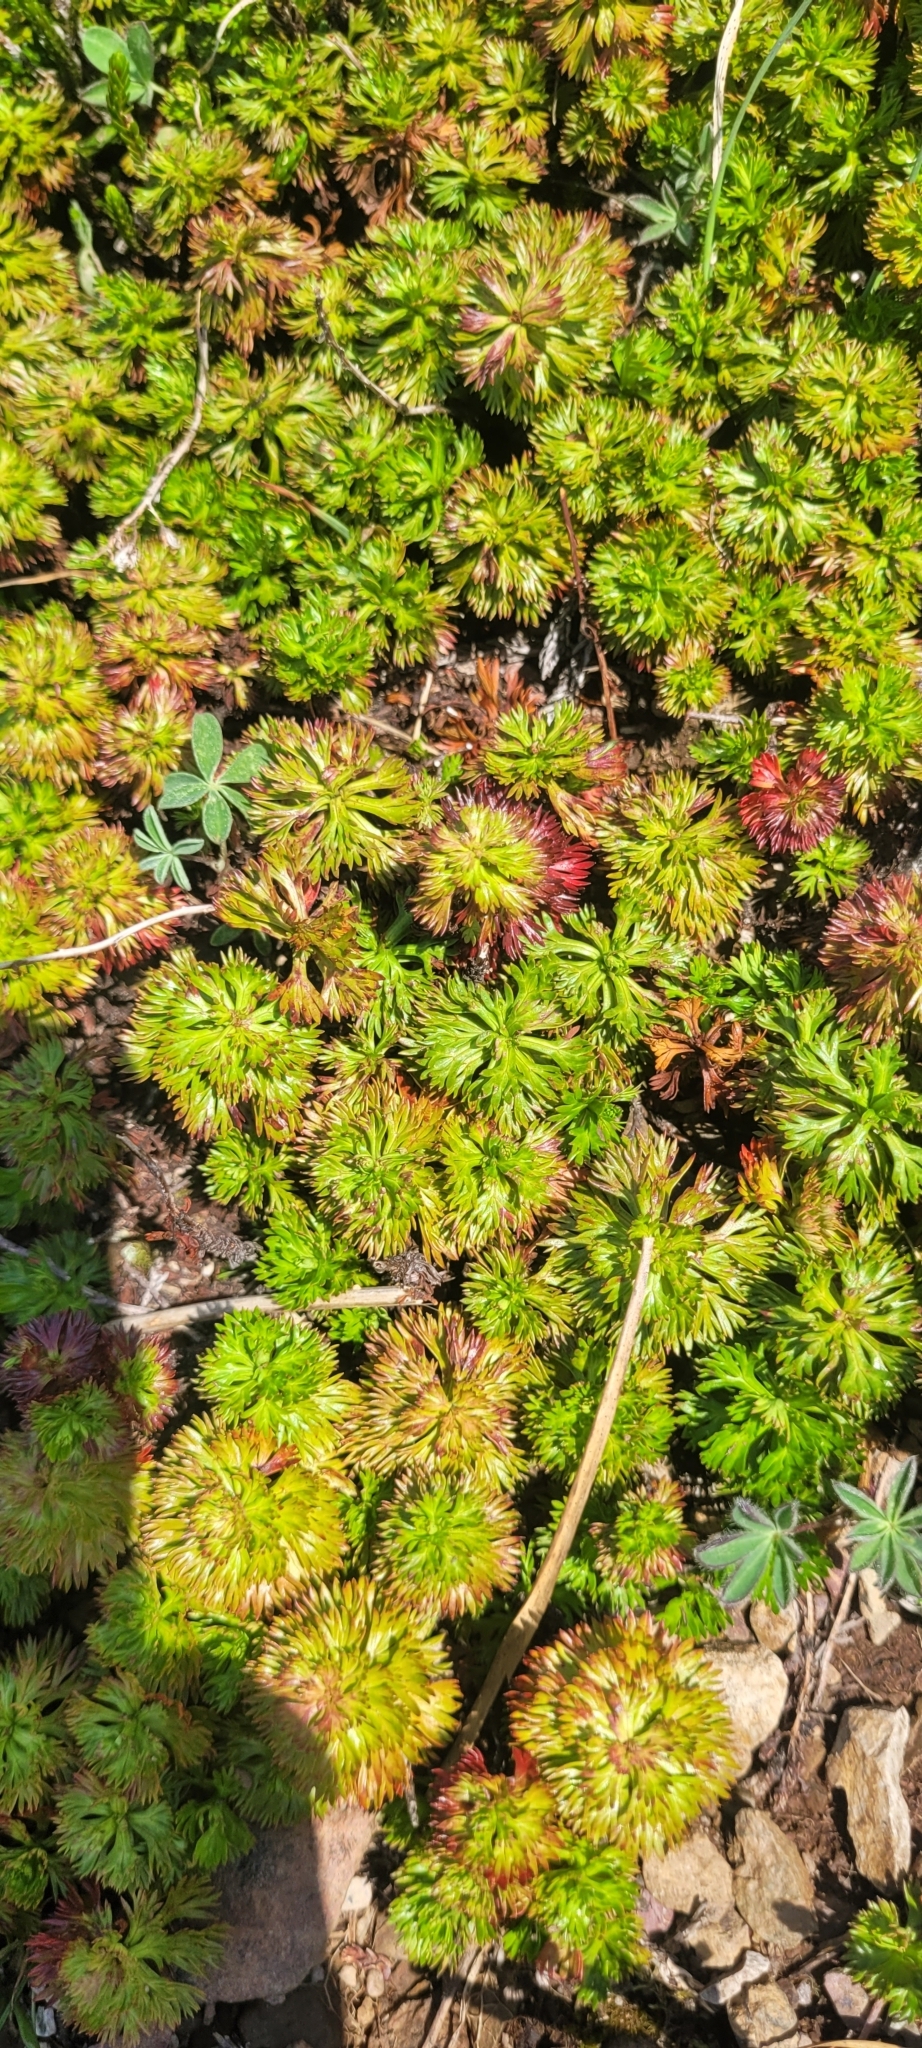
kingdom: Plantae
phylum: Tracheophyta
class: Magnoliopsida
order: Rosales
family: Rosaceae
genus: Luetkea
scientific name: Luetkea pectinata
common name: Partridgefoot
